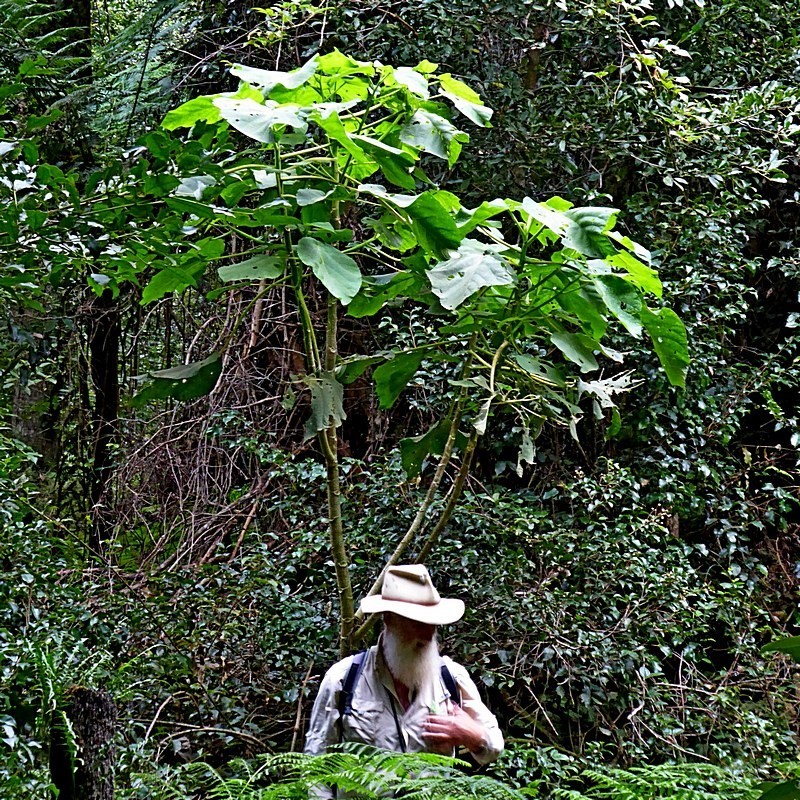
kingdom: Plantae
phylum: Tracheophyta
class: Magnoliopsida
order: Rosales
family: Urticaceae
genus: Dendrocnide
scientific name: Dendrocnide excelsa
